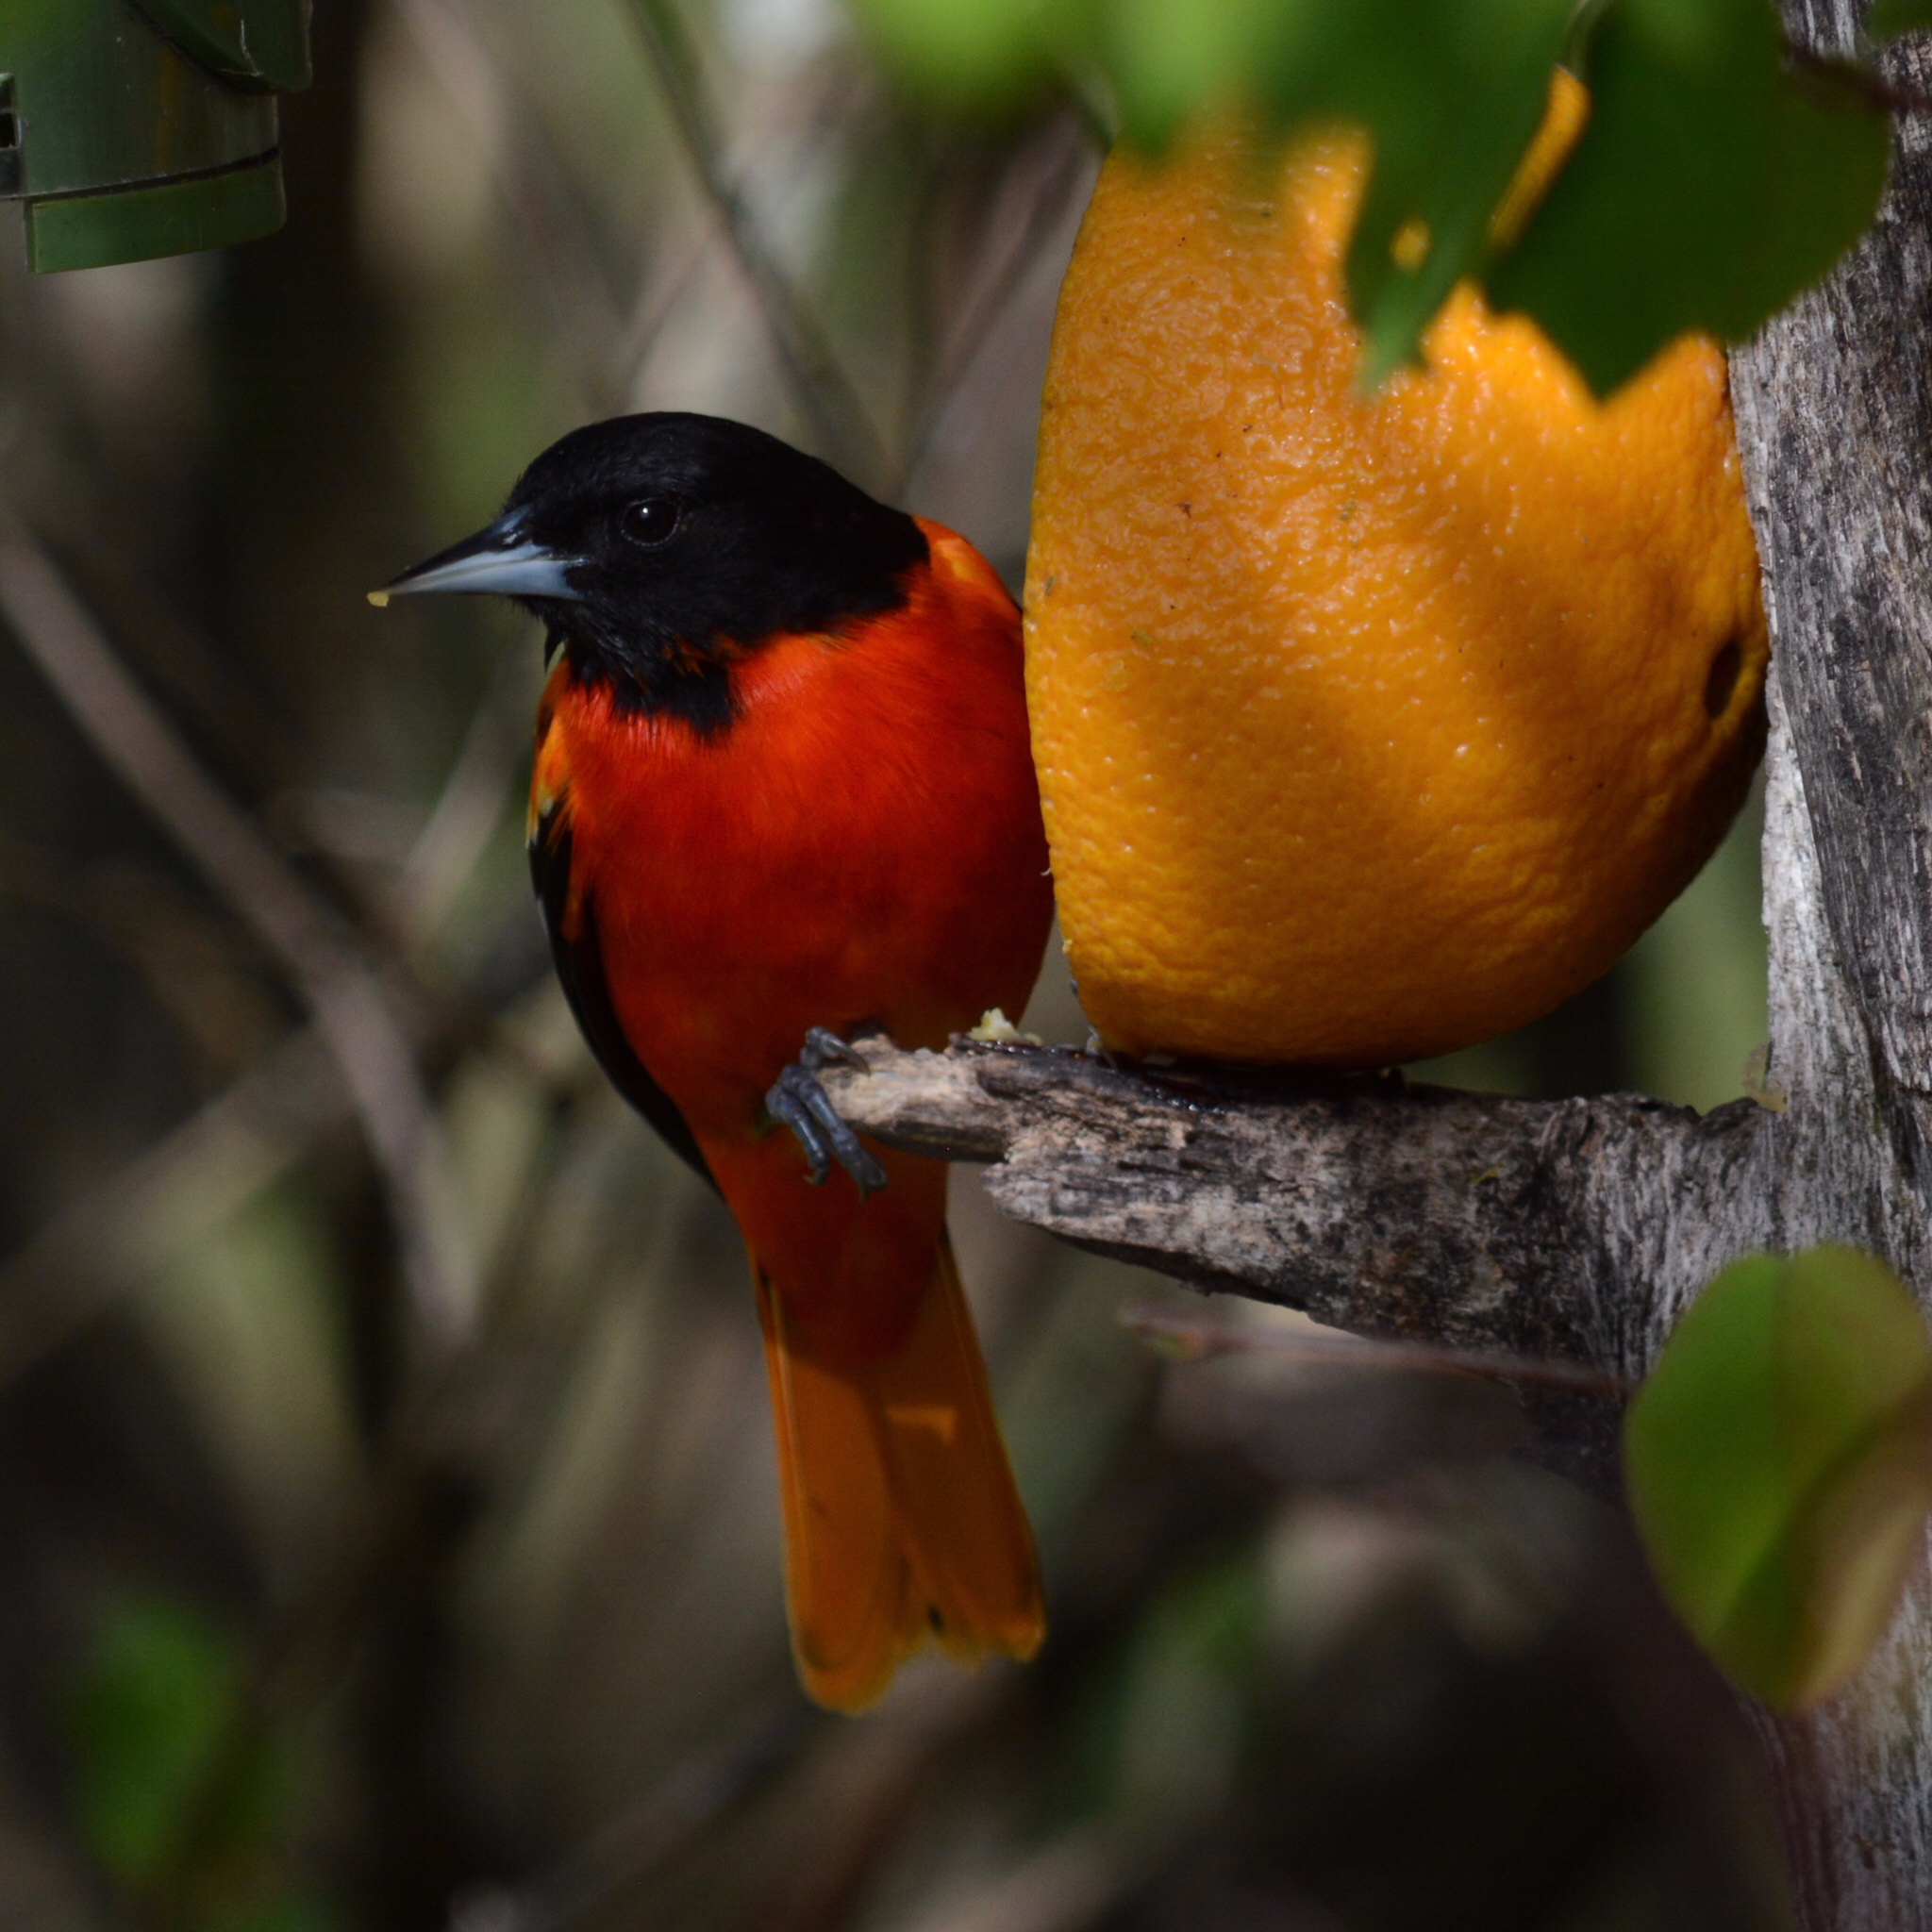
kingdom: Animalia
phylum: Chordata
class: Aves
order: Passeriformes
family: Icteridae
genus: Icterus
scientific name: Icterus galbula
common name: Baltimore oriole
